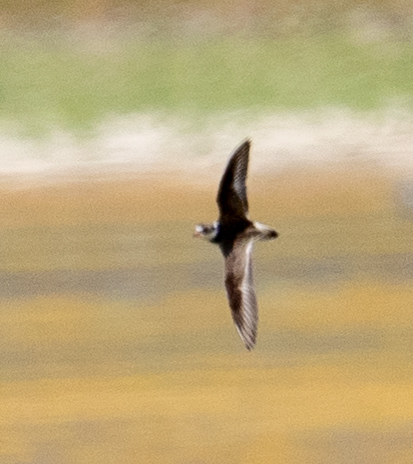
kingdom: Animalia
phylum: Chordata
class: Aves
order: Charadriiformes
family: Charadriidae
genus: Charadrius
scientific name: Charadrius semipalmatus
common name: Semipalmated plover
